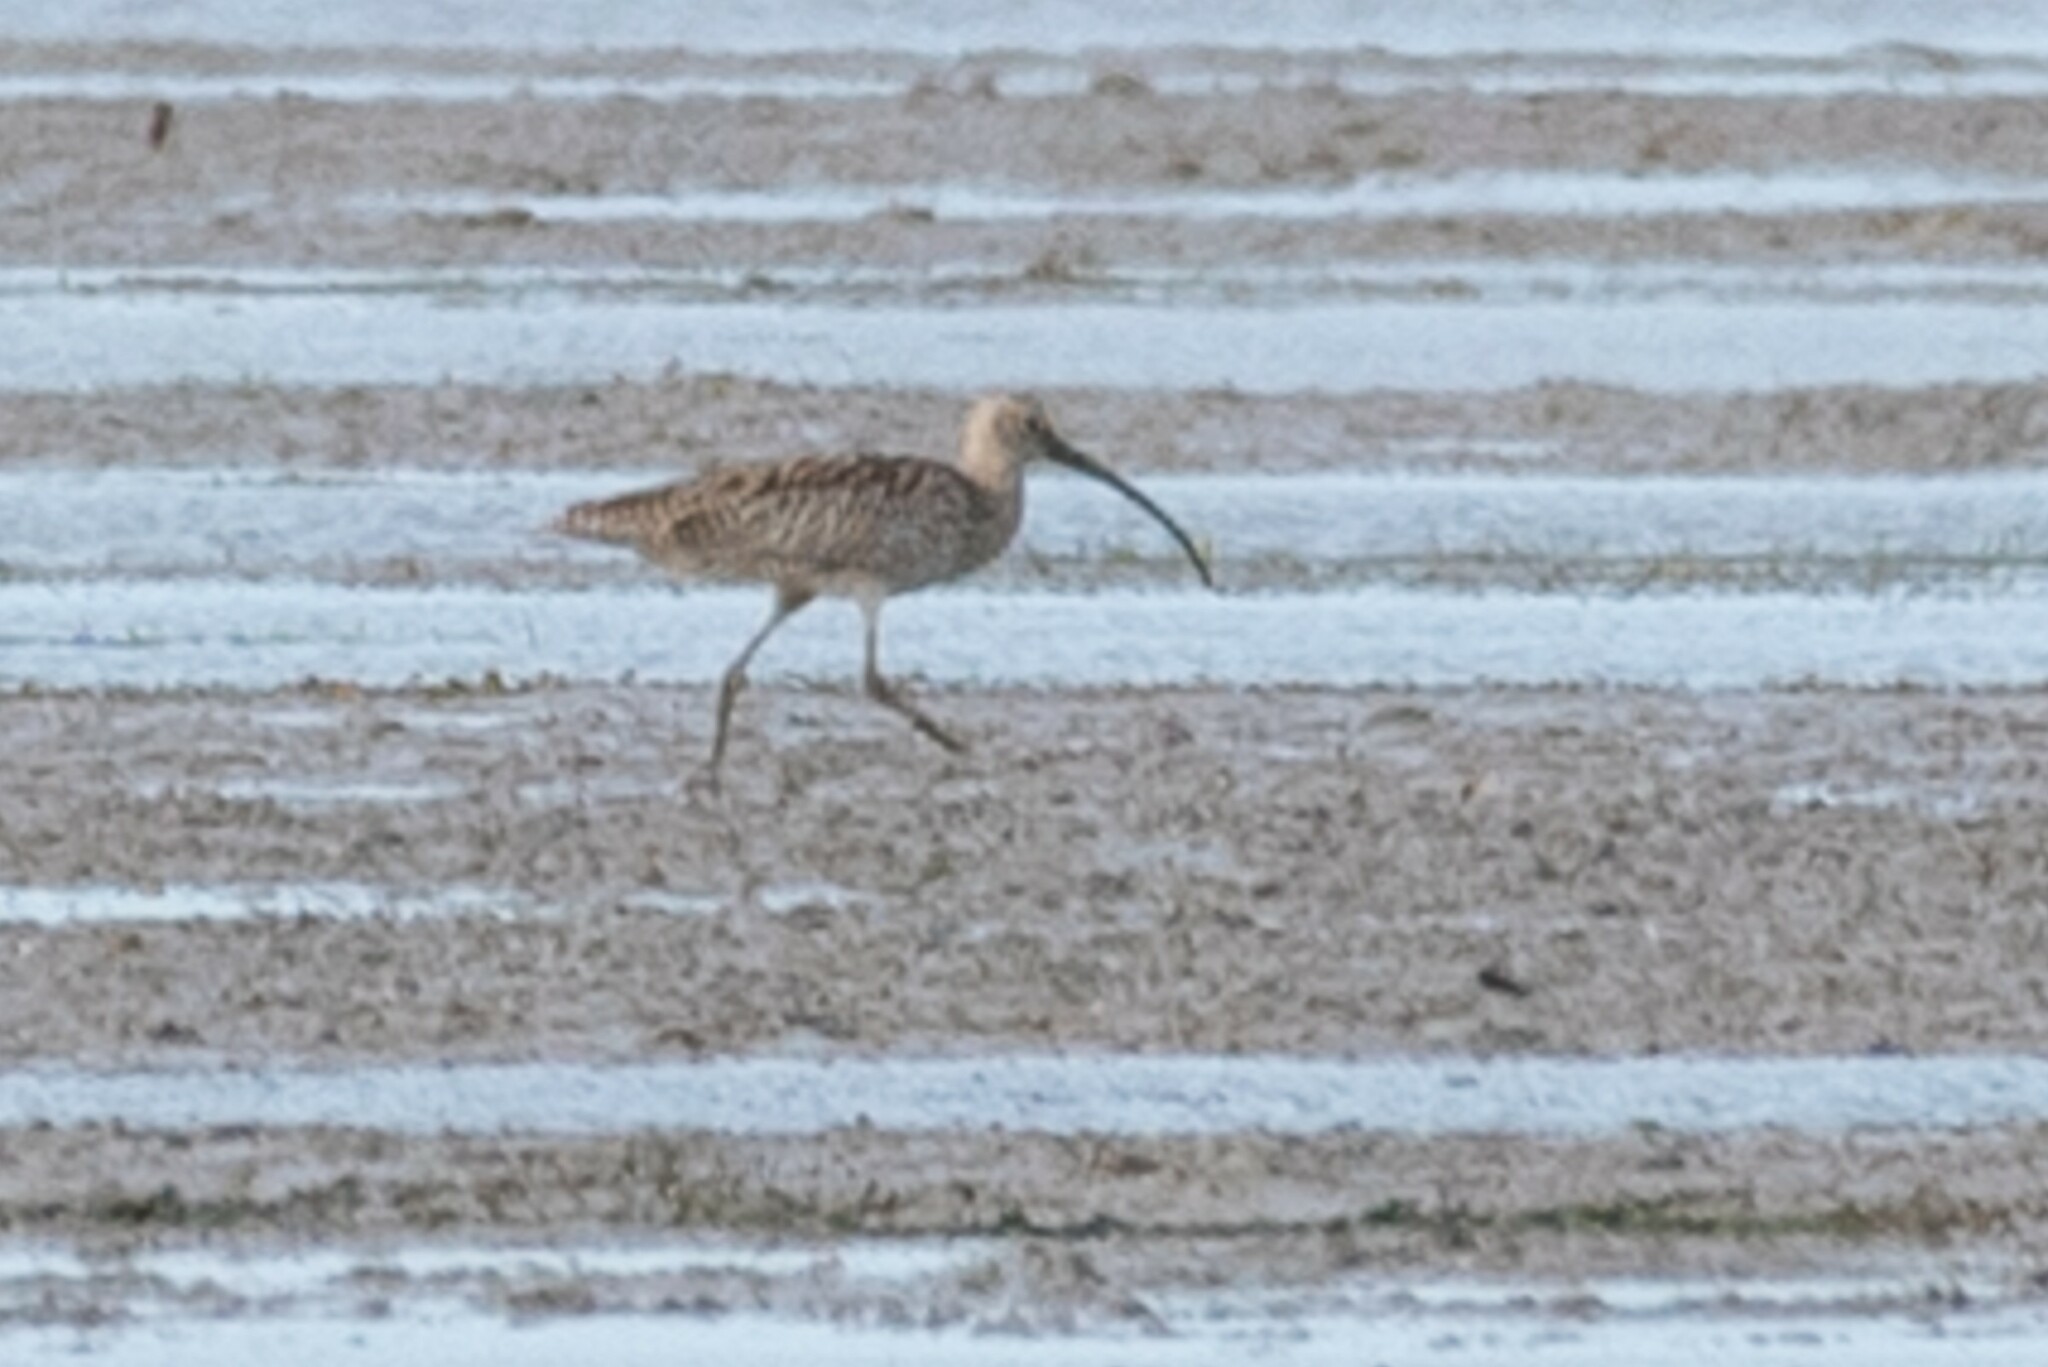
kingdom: Animalia
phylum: Chordata
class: Aves
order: Charadriiformes
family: Scolopacidae
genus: Numenius
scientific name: Numenius madagascariensis
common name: Far eastern curlew
